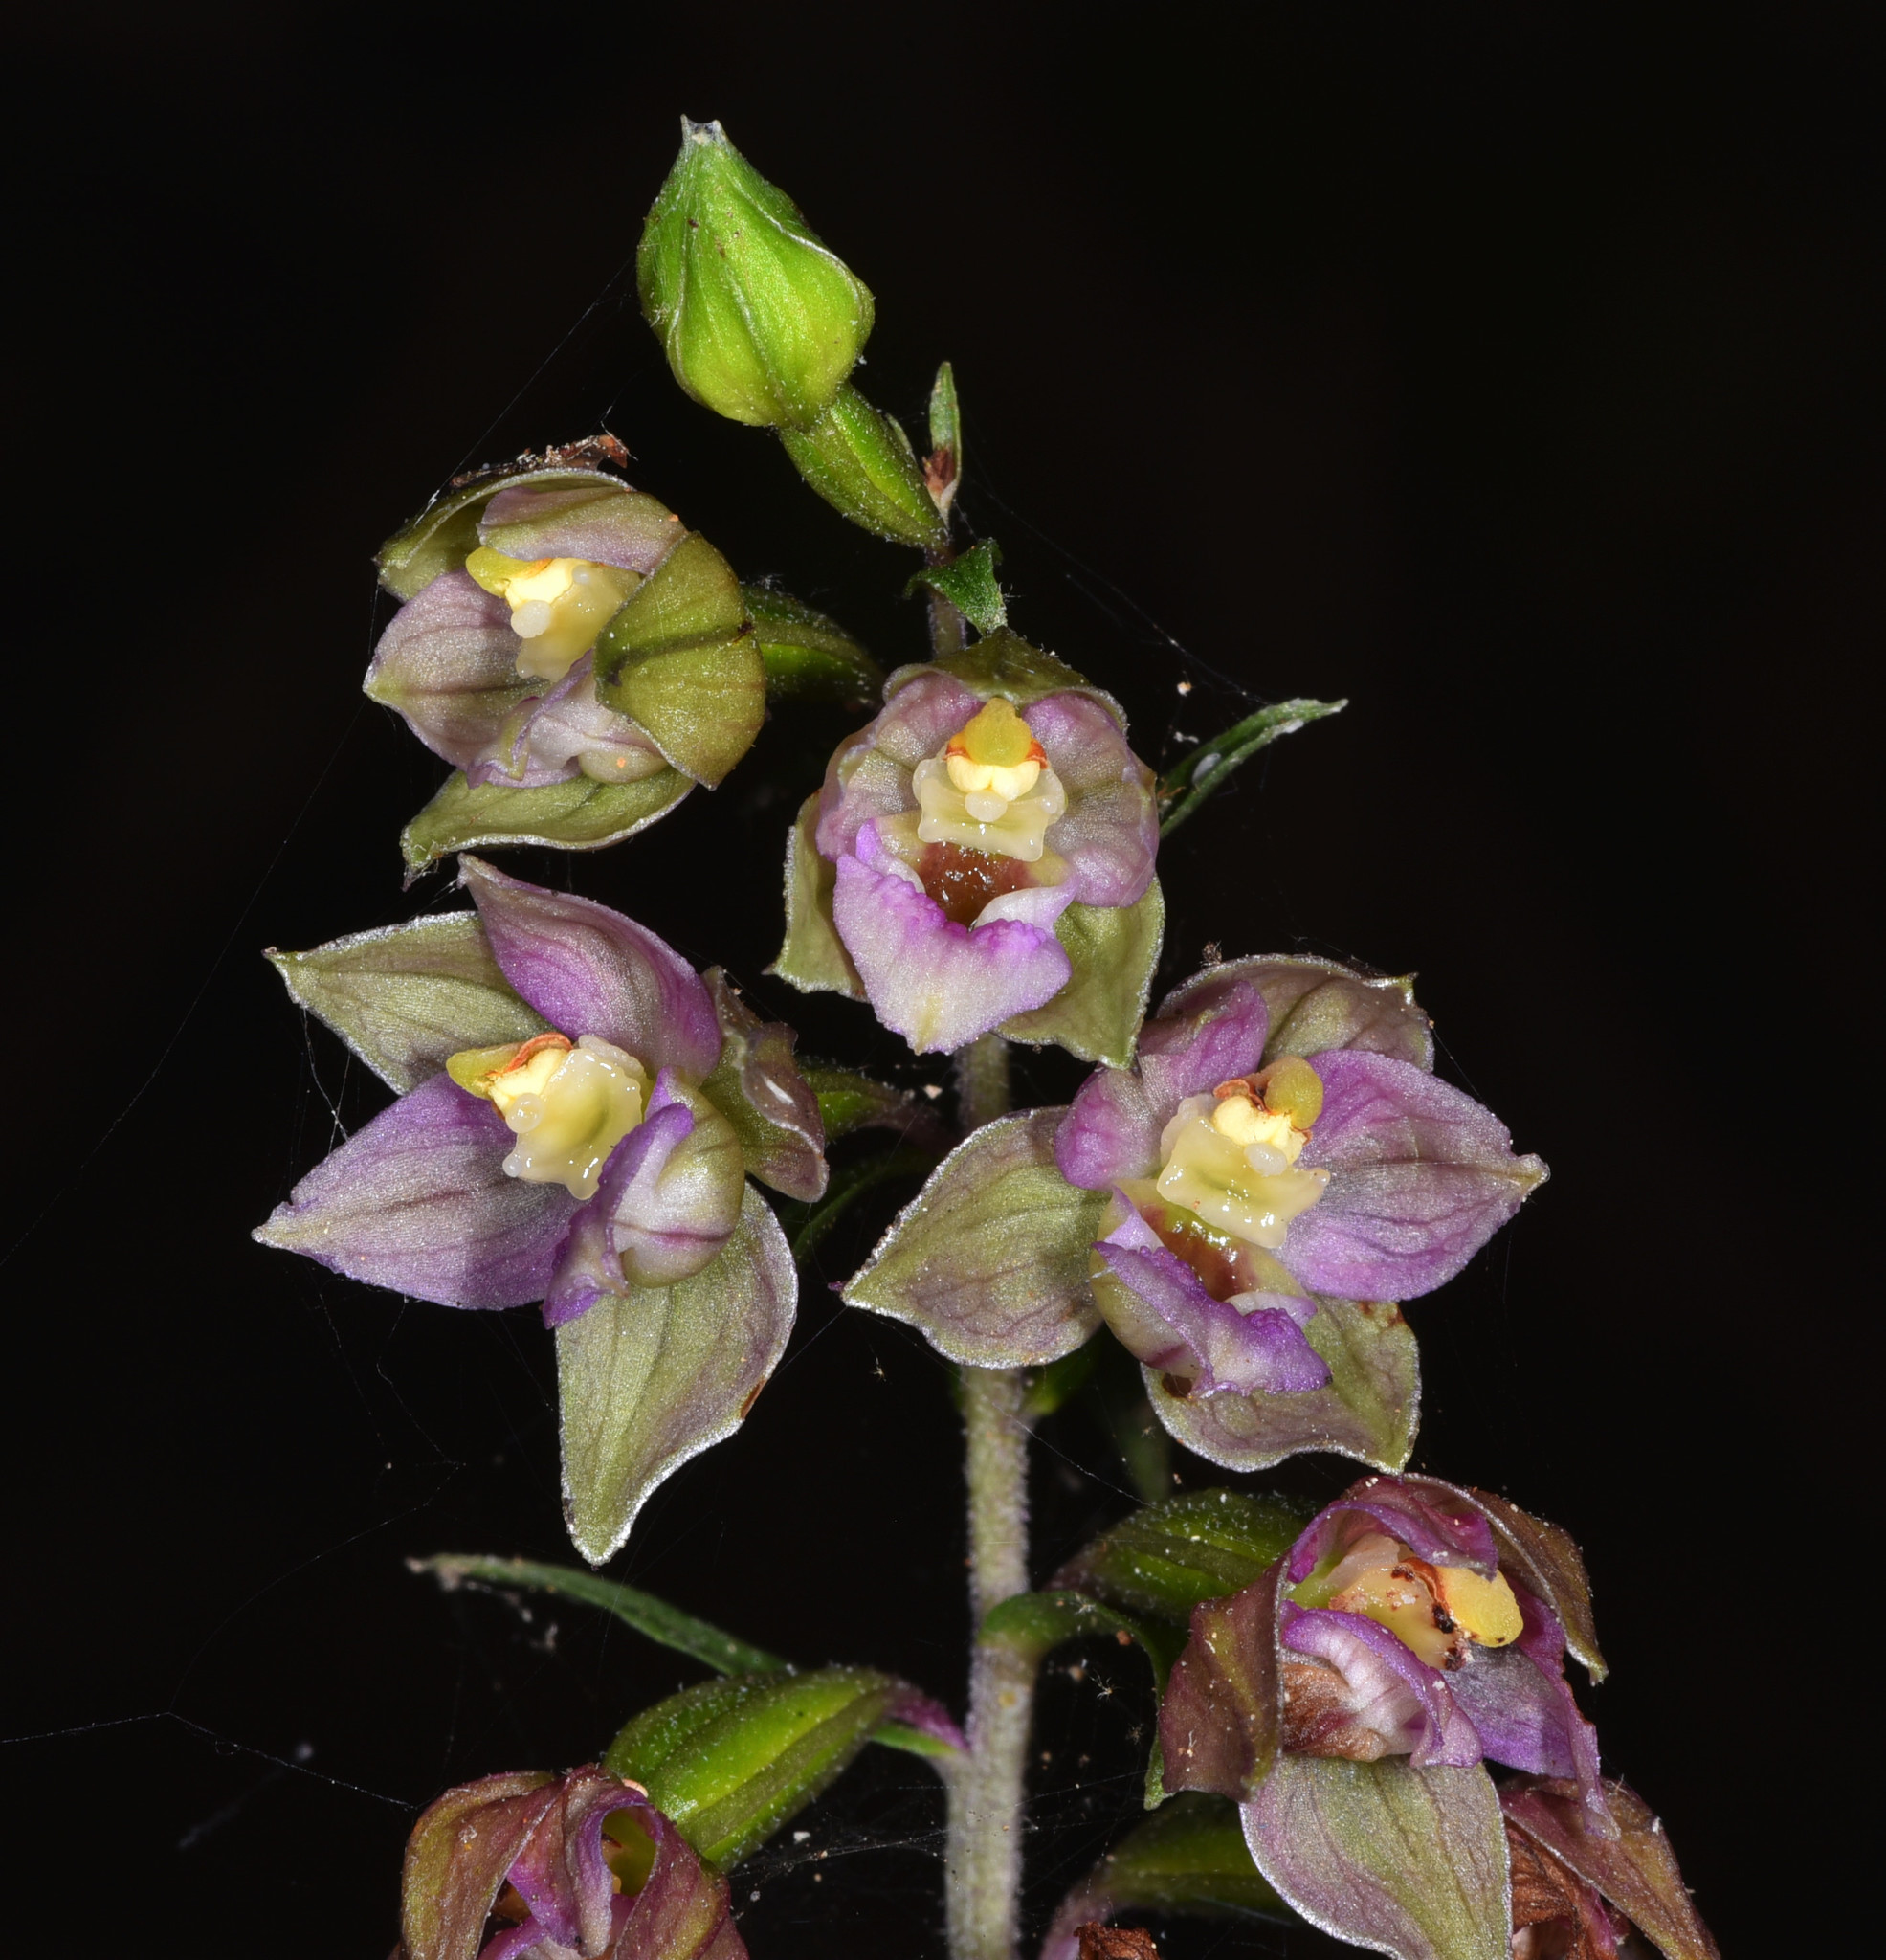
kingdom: Plantae
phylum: Tracheophyta
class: Liliopsida
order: Asparagales
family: Orchidaceae
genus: Epipactis
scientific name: Epipactis helleborine
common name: Broad-leaved helleborine
